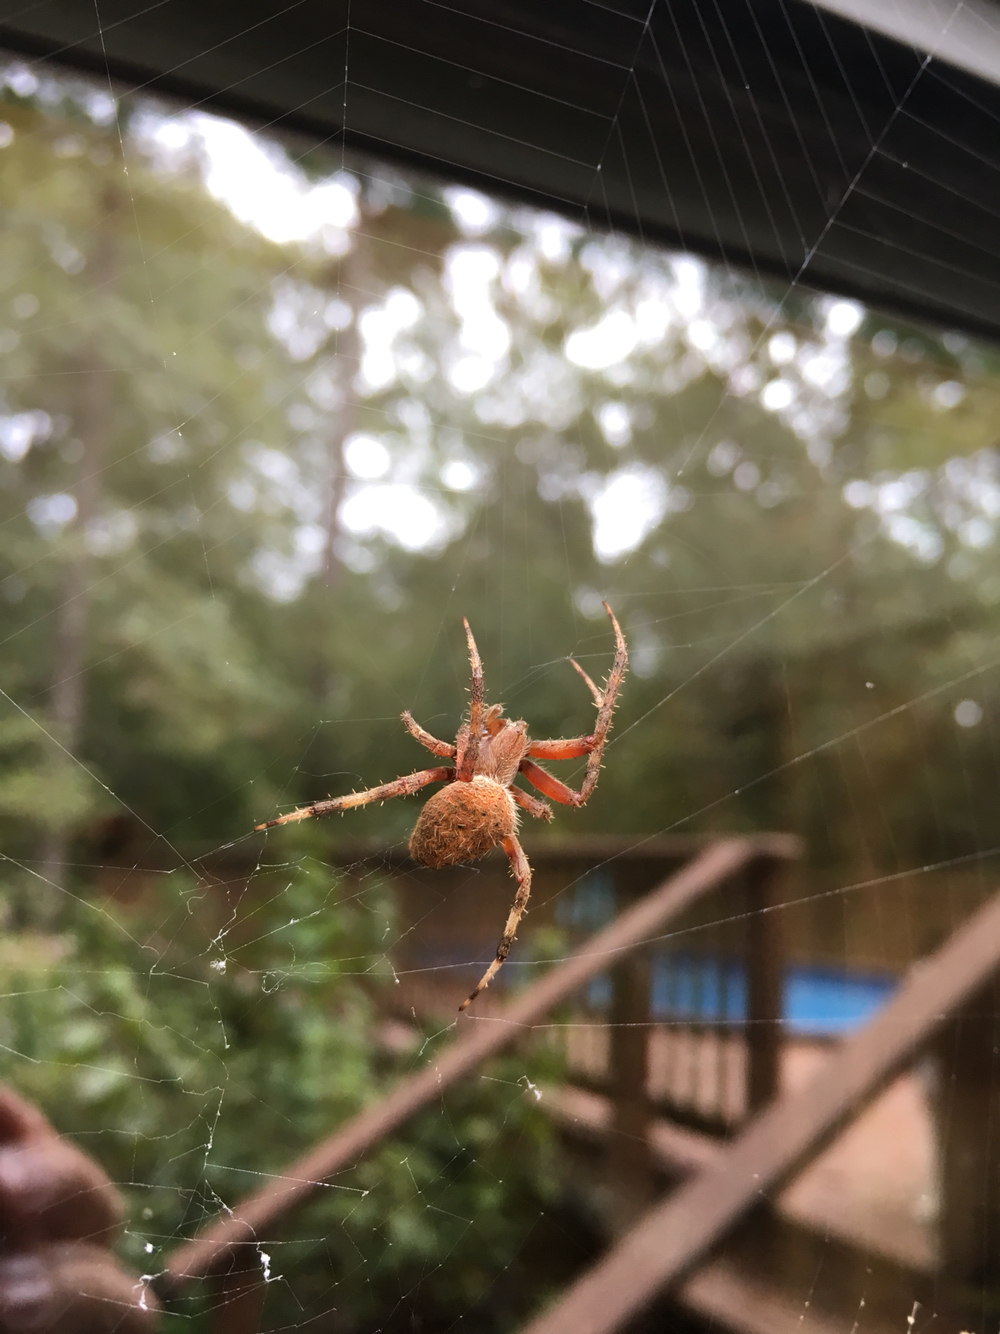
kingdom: Animalia
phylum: Arthropoda
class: Arachnida
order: Araneae
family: Araneidae
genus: Neoscona
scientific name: Neoscona crucifera
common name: Spotted orbweaver
